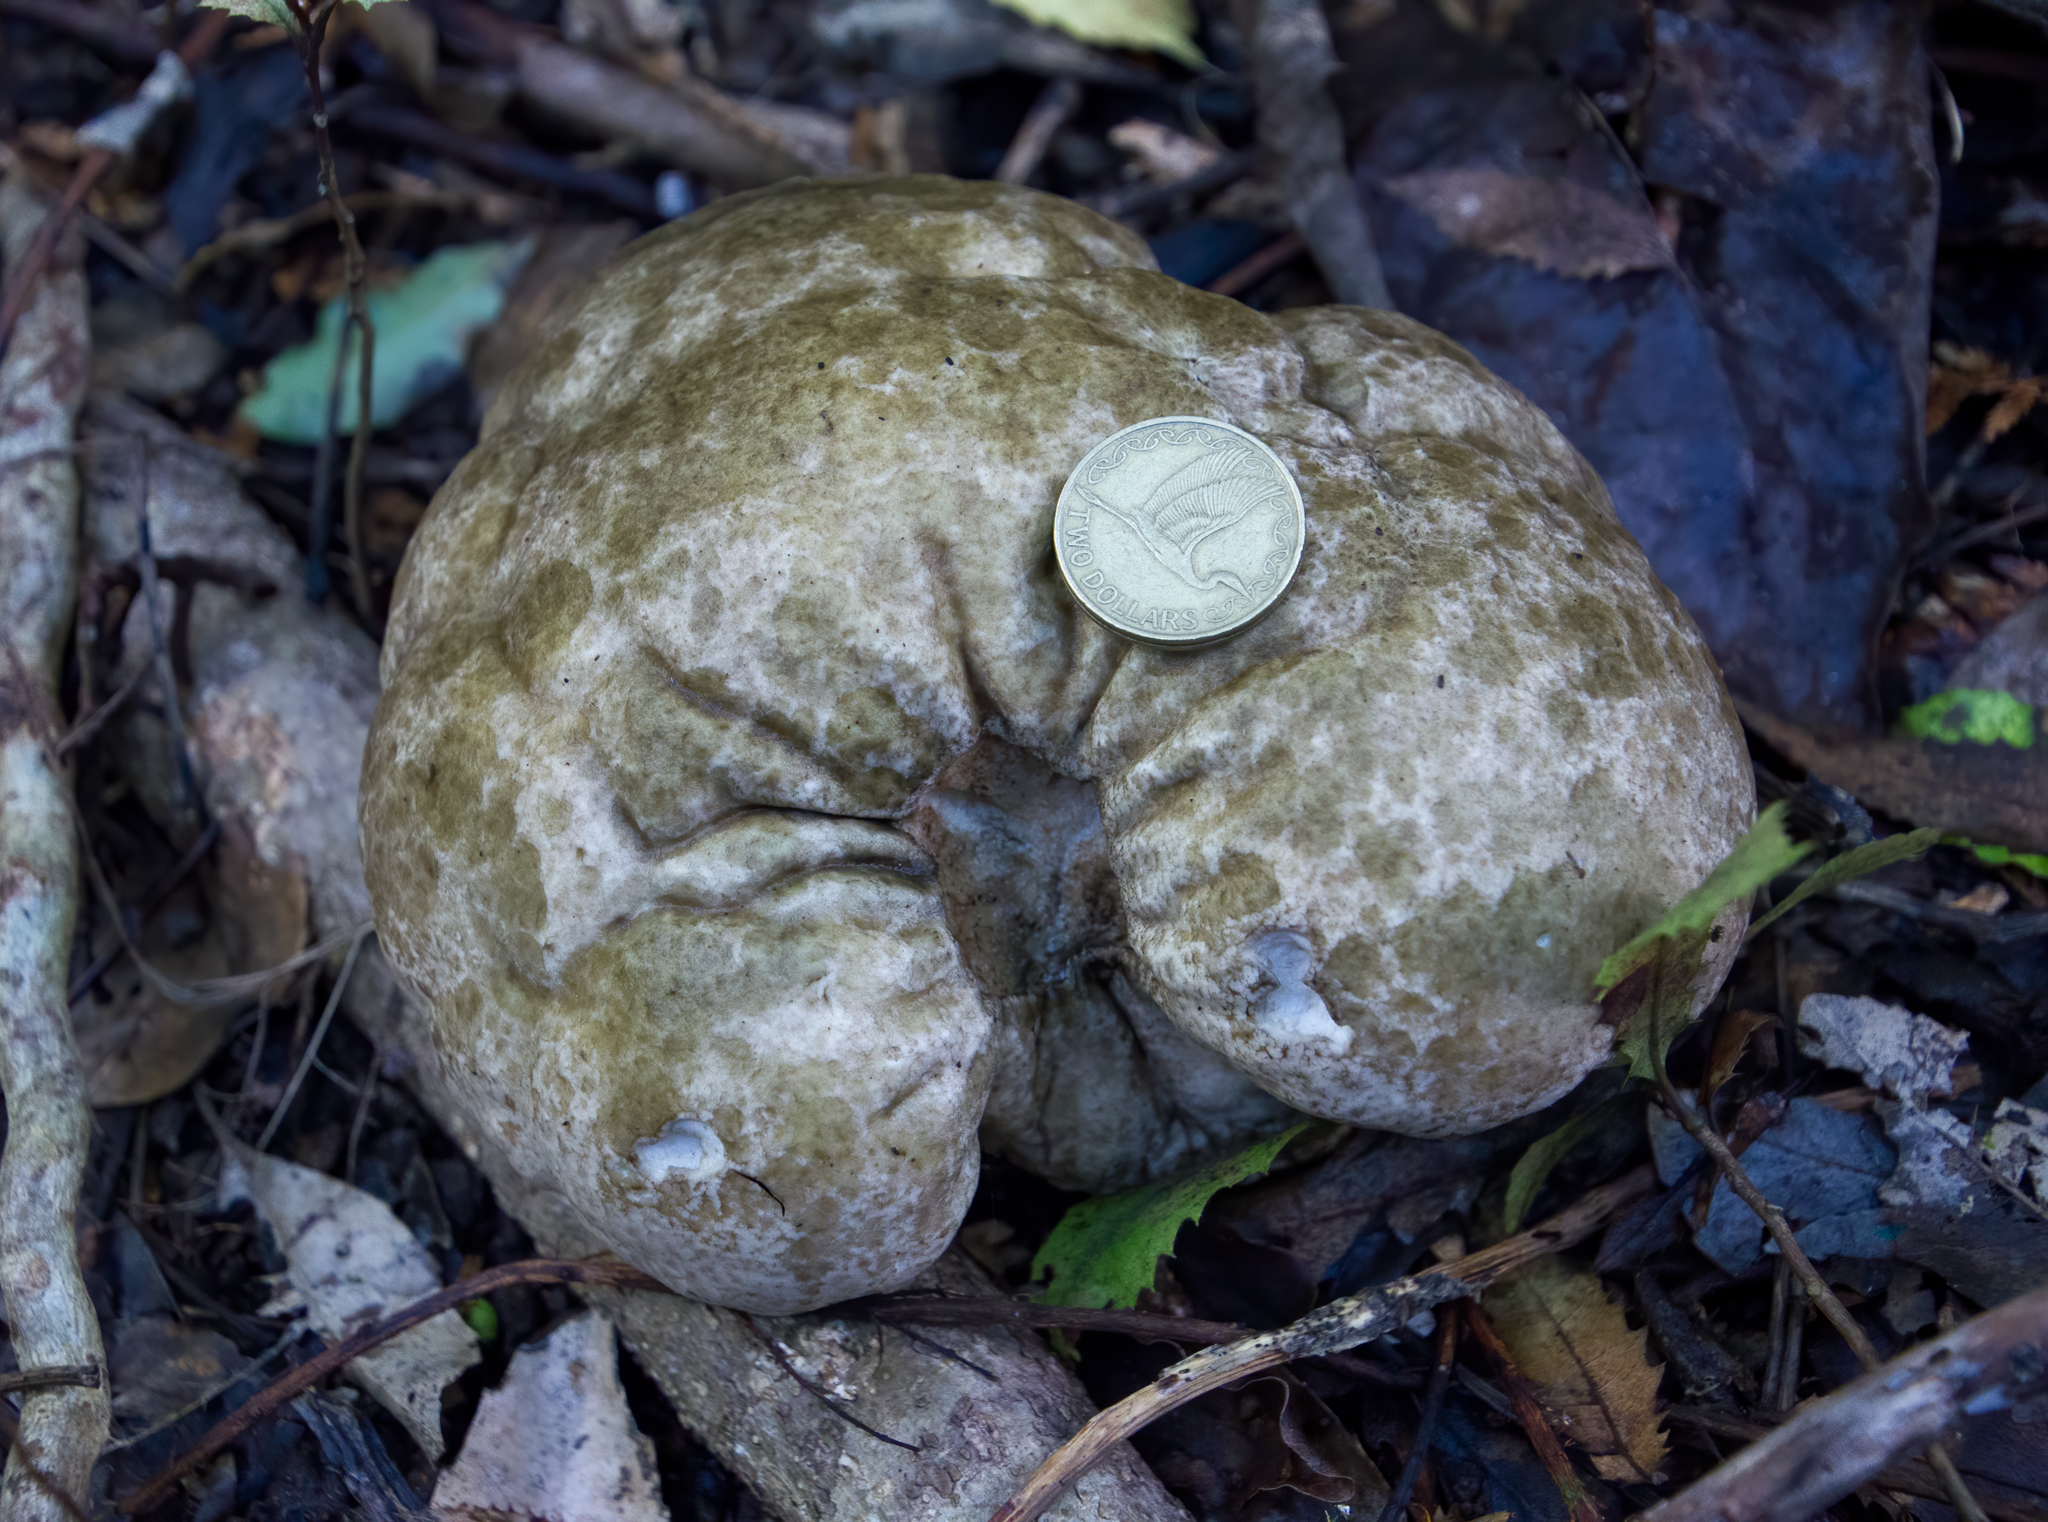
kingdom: Fungi
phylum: Basidiomycota
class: Agaricomycetes
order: Agaricales
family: Lycoperdaceae
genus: Calvatia
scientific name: Calvatia gigantea
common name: Giant puffball
